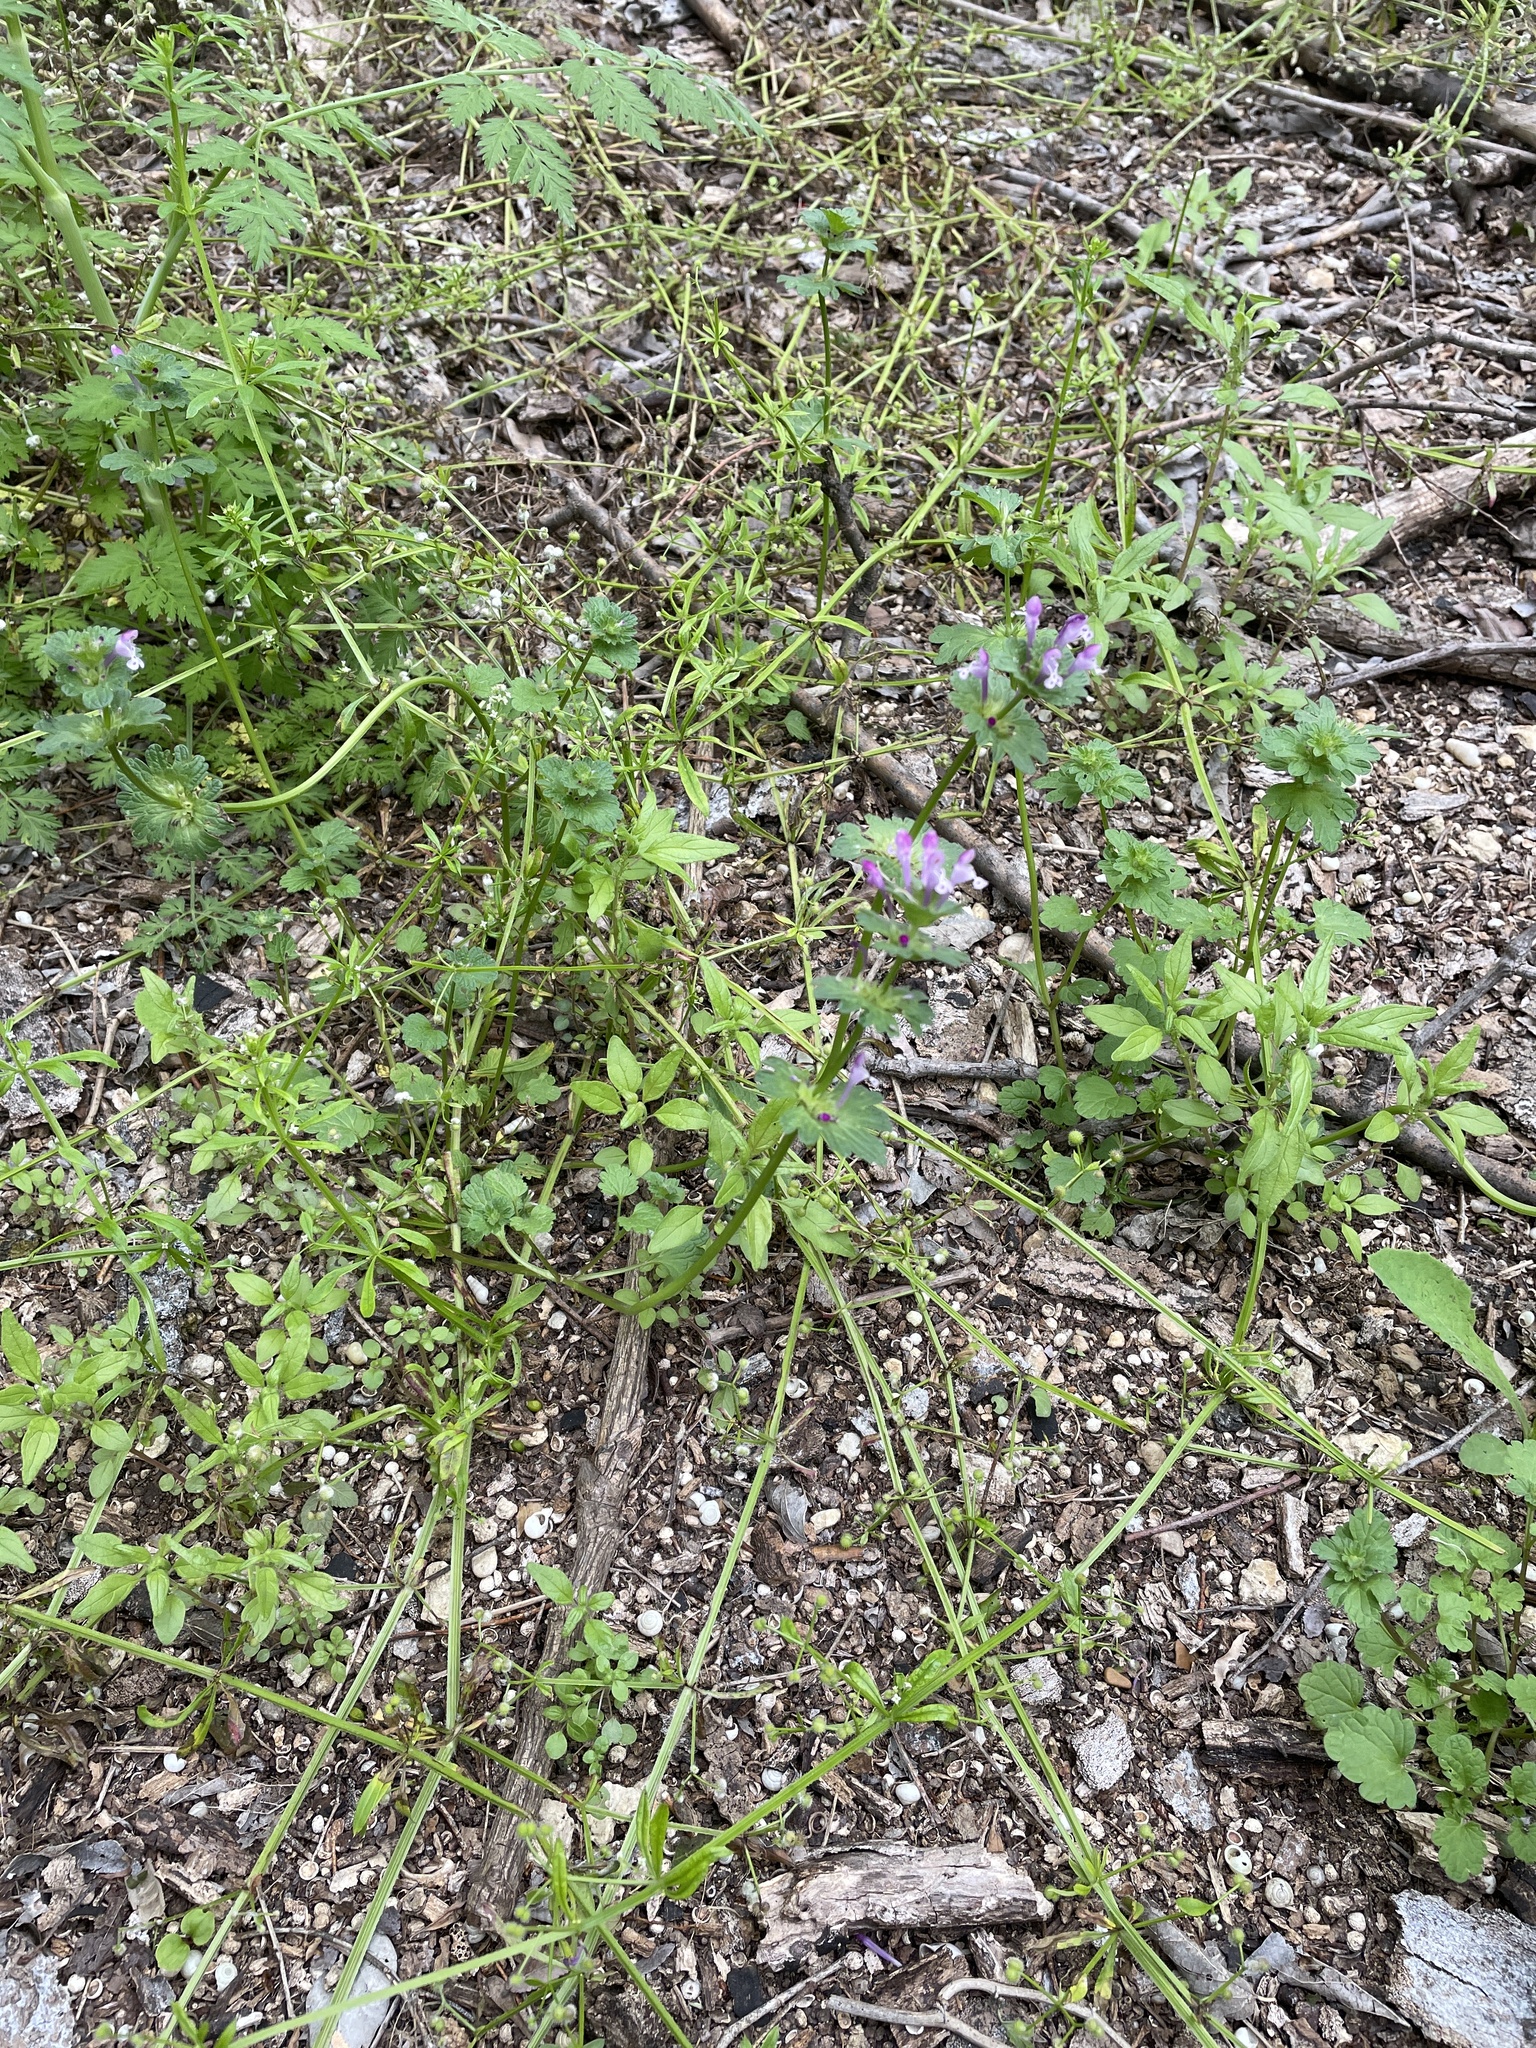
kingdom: Plantae
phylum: Tracheophyta
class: Magnoliopsida
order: Lamiales
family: Lamiaceae
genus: Lamium
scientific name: Lamium amplexicaule
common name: Henbit dead-nettle
